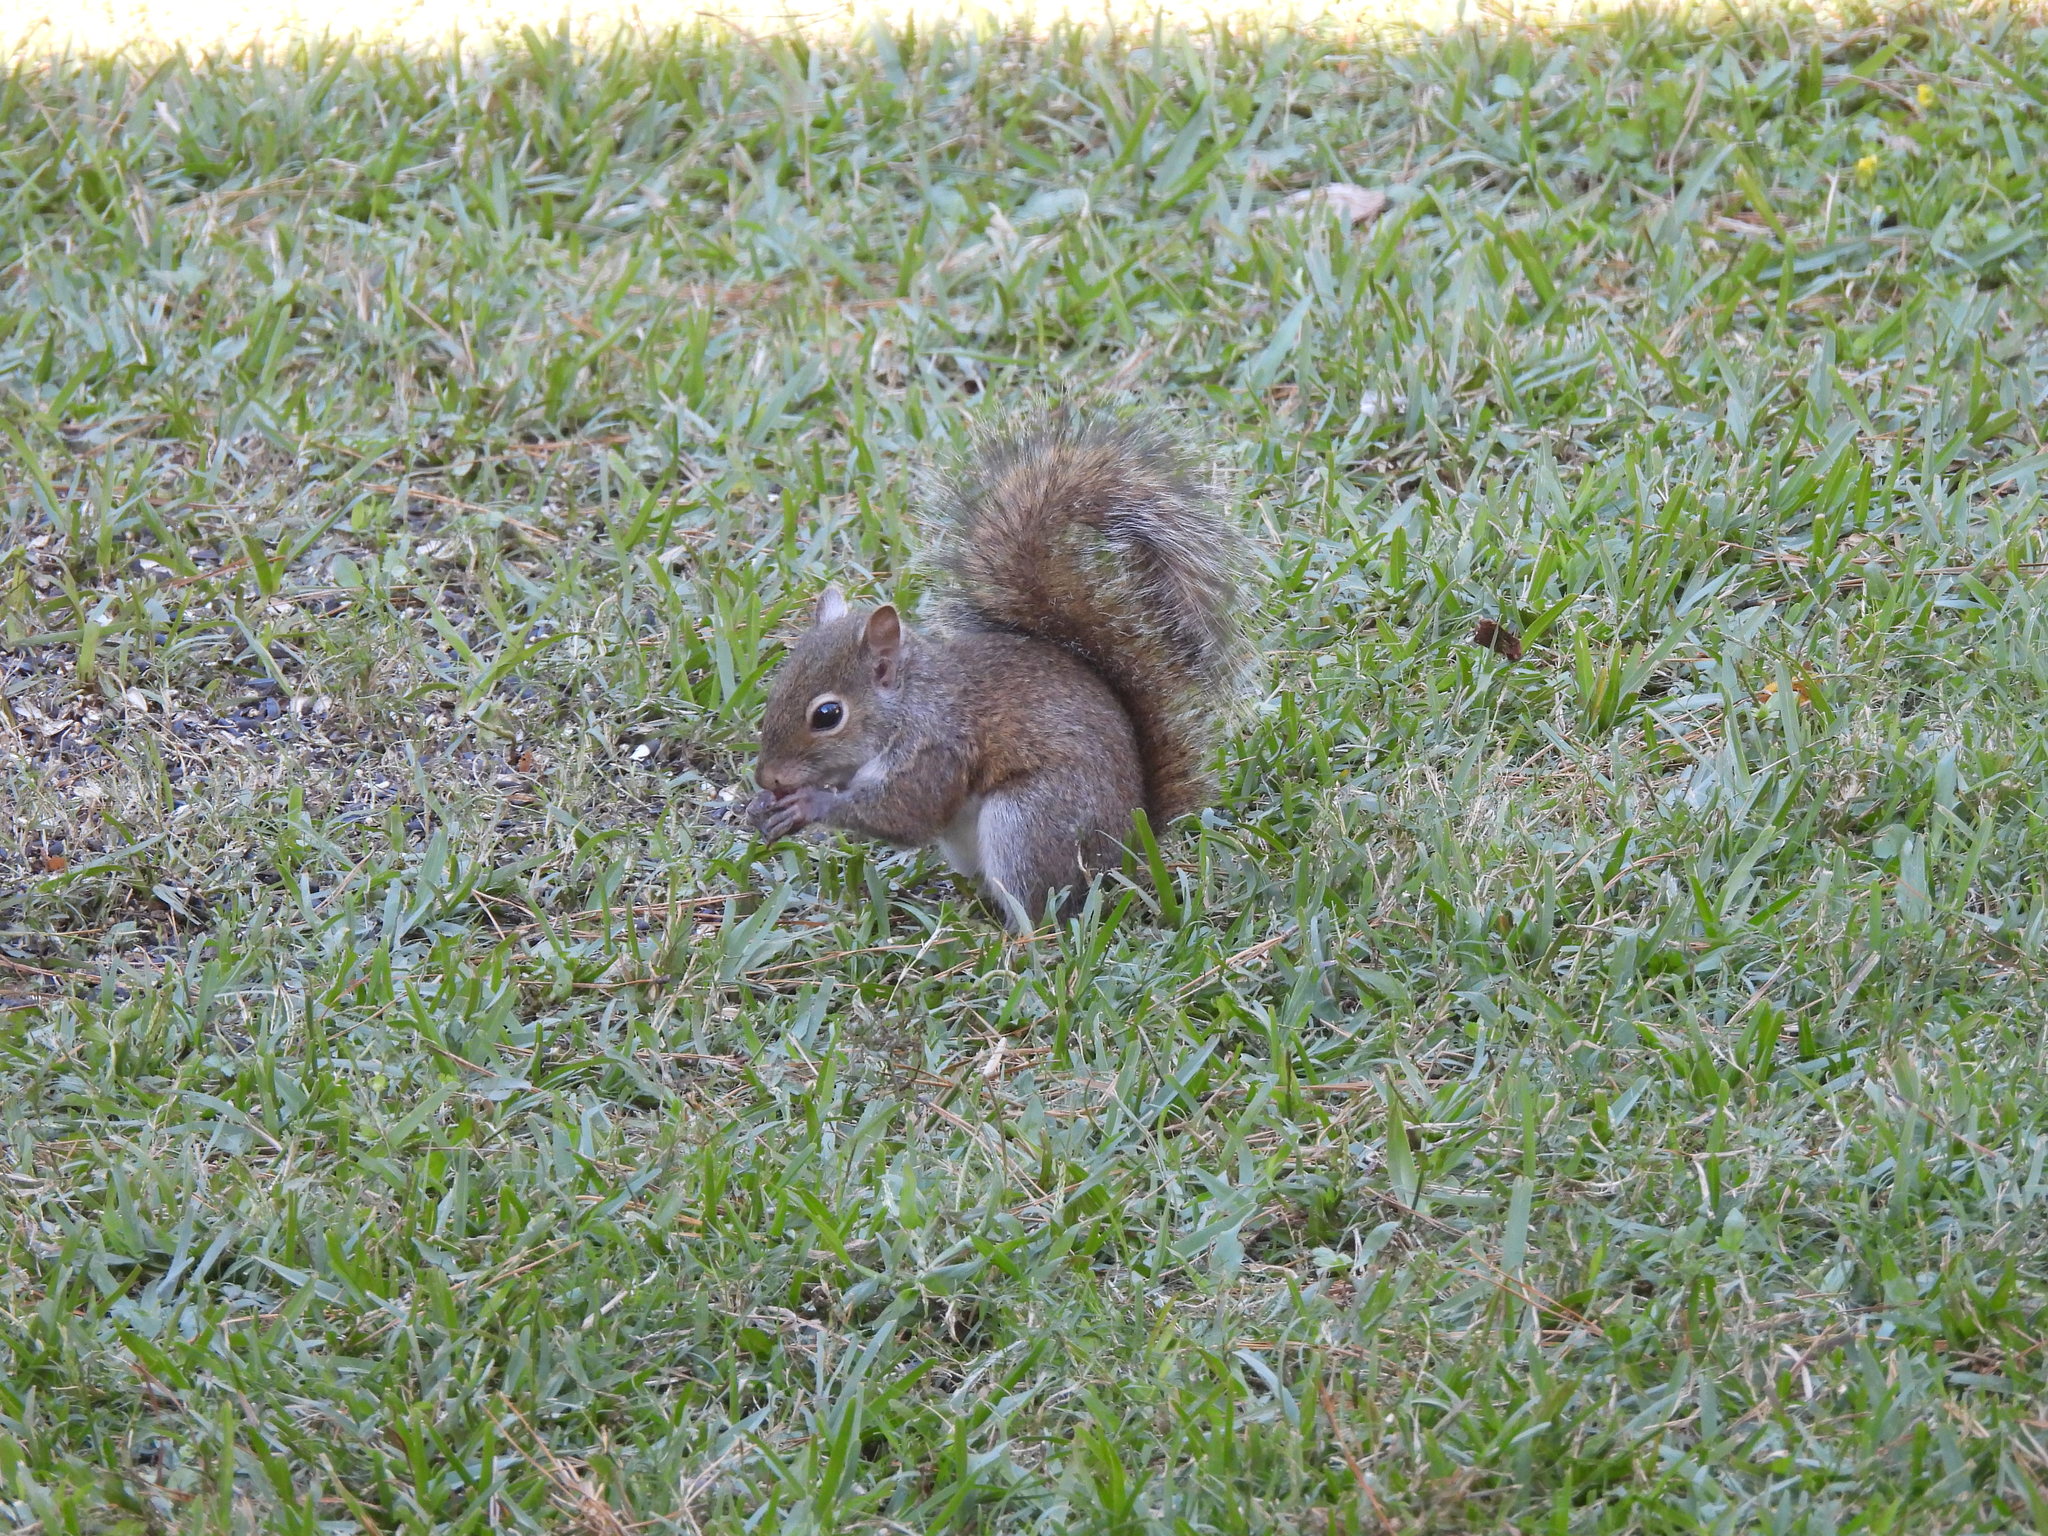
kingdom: Animalia
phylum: Chordata
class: Mammalia
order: Rodentia
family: Sciuridae
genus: Sciurus
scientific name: Sciurus carolinensis
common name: Eastern gray squirrel
